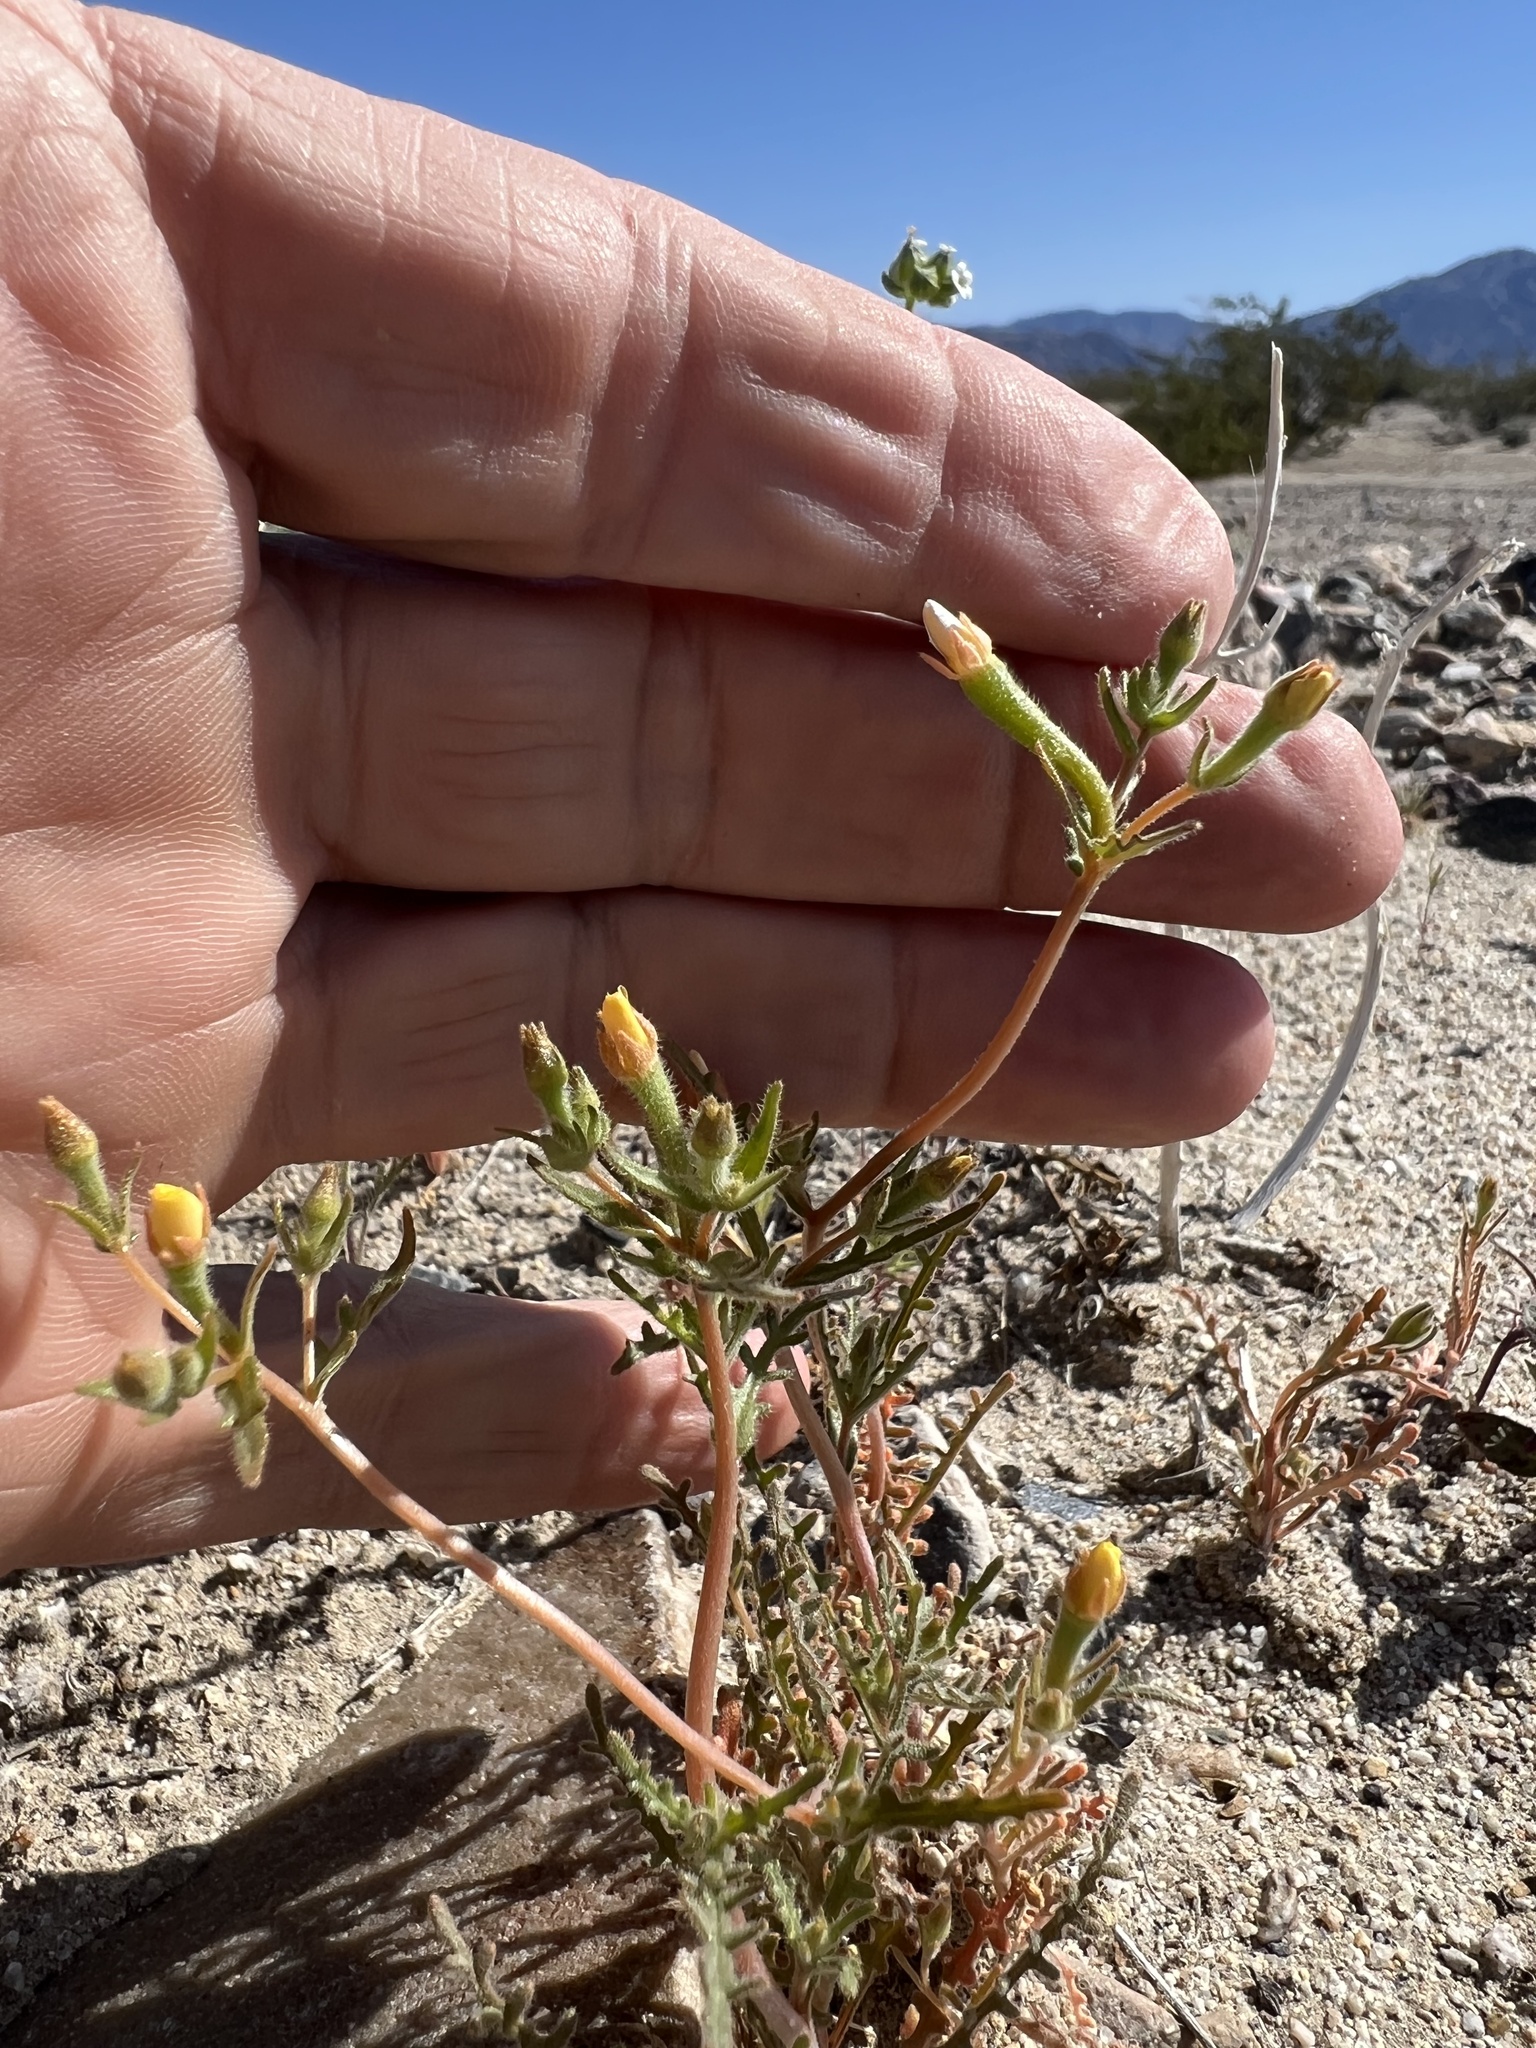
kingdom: Plantae
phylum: Tracheophyta
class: Magnoliopsida
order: Cornales
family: Loasaceae
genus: Mentzelia
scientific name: Mentzelia albicaulis
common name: White-stem blazingstar
